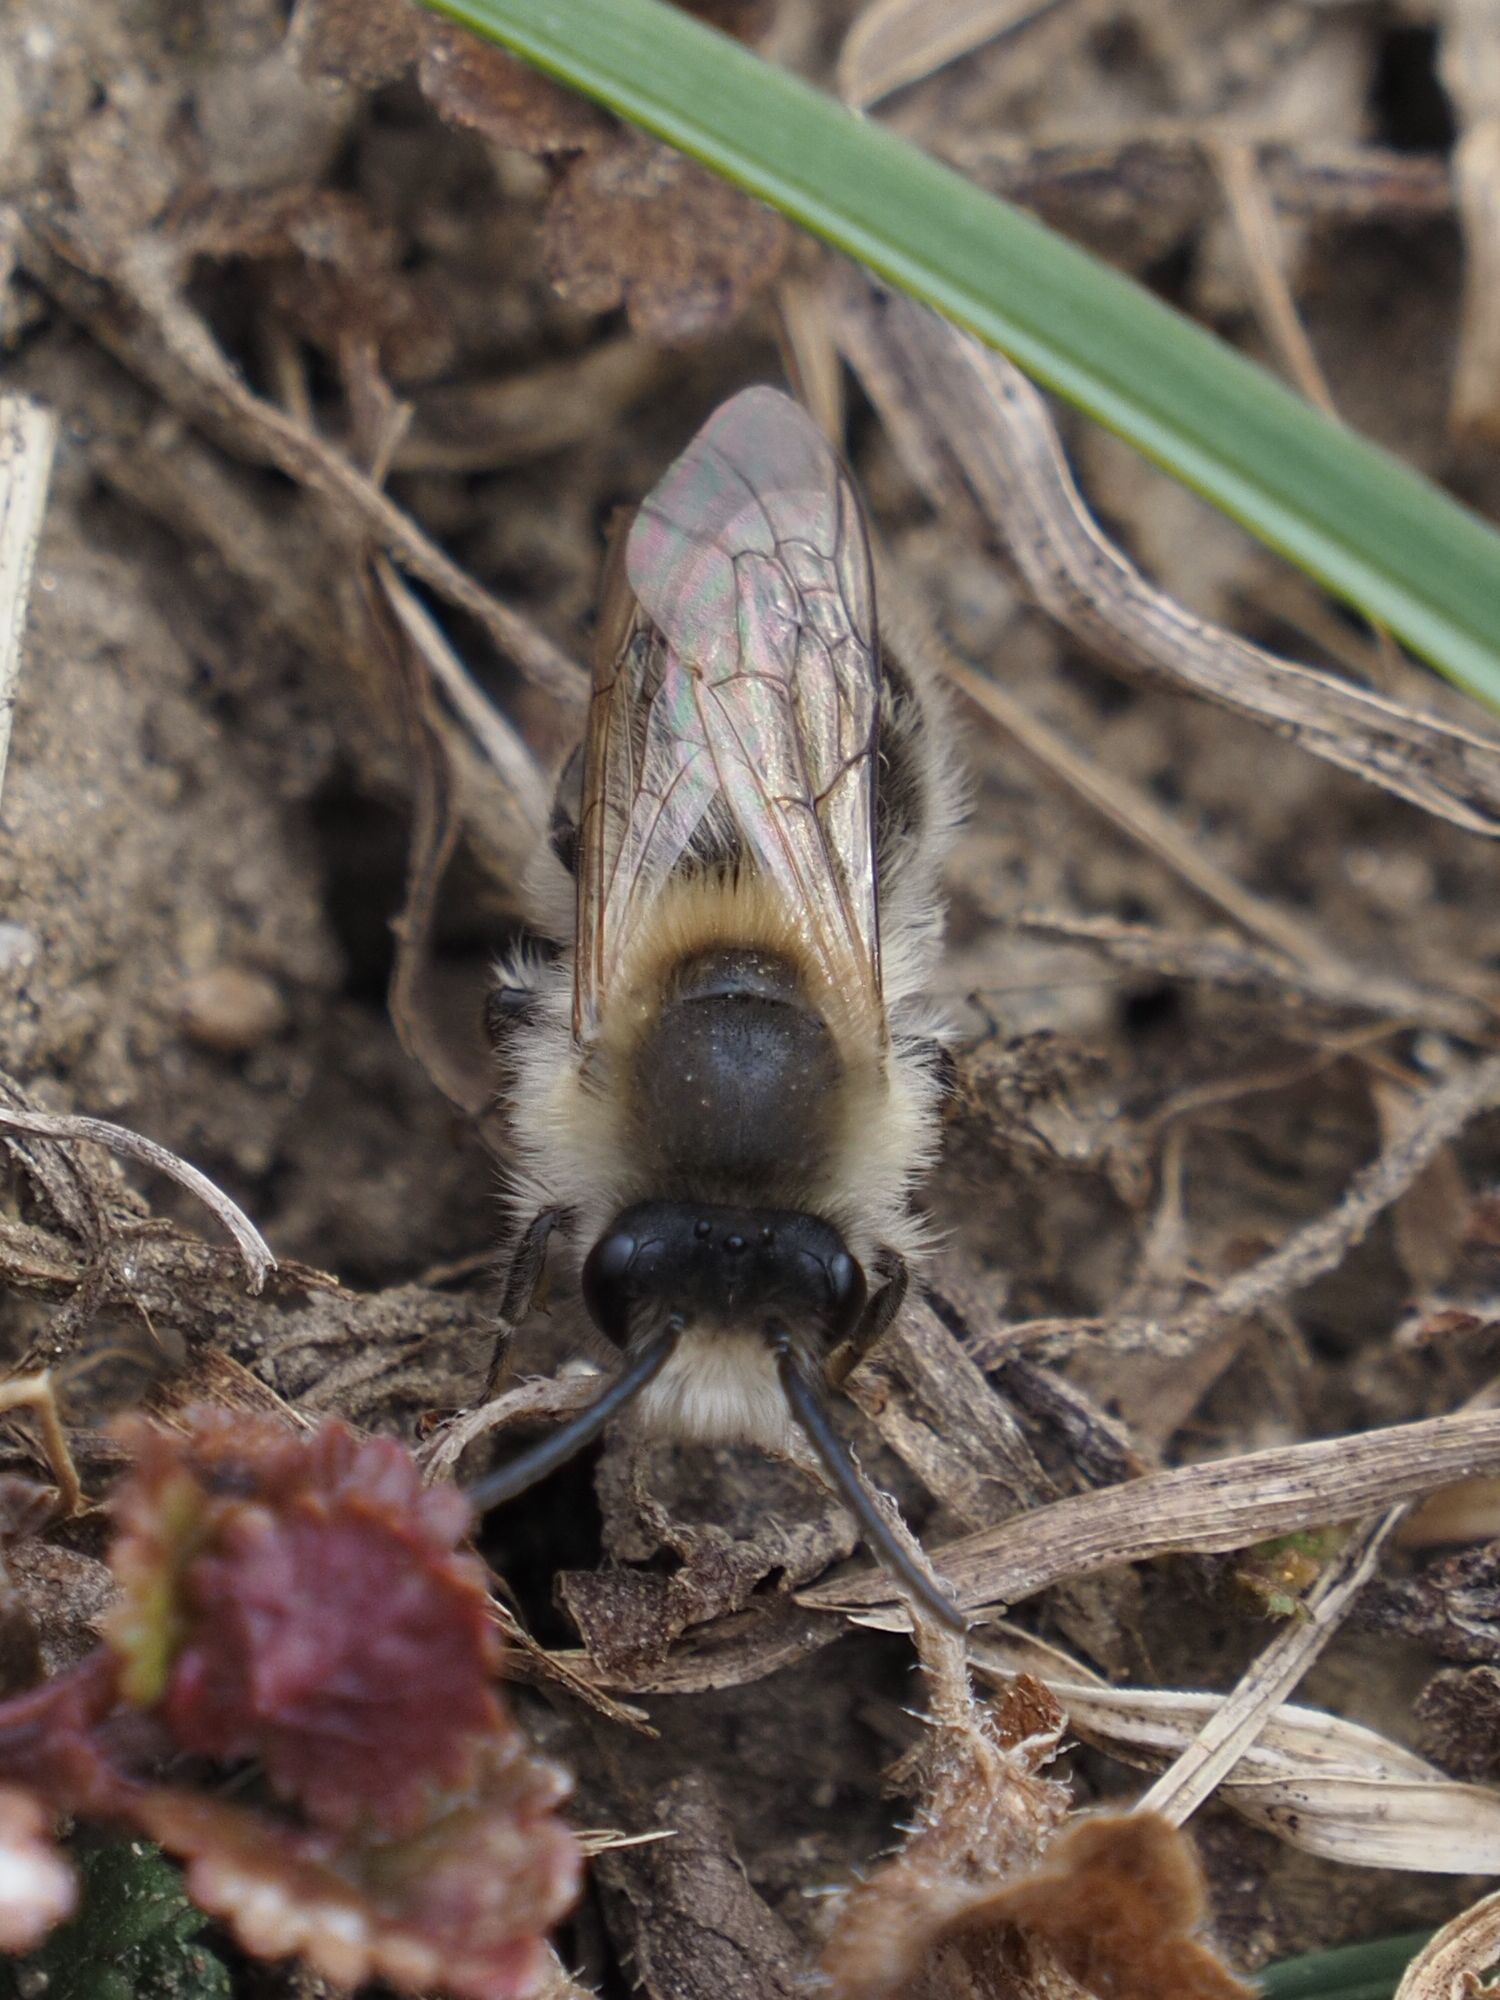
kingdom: Animalia
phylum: Arthropoda
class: Insecta
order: Hymenoptera
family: Colletidae
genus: Colletes
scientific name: Colletes cunicularius
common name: Early colletes
